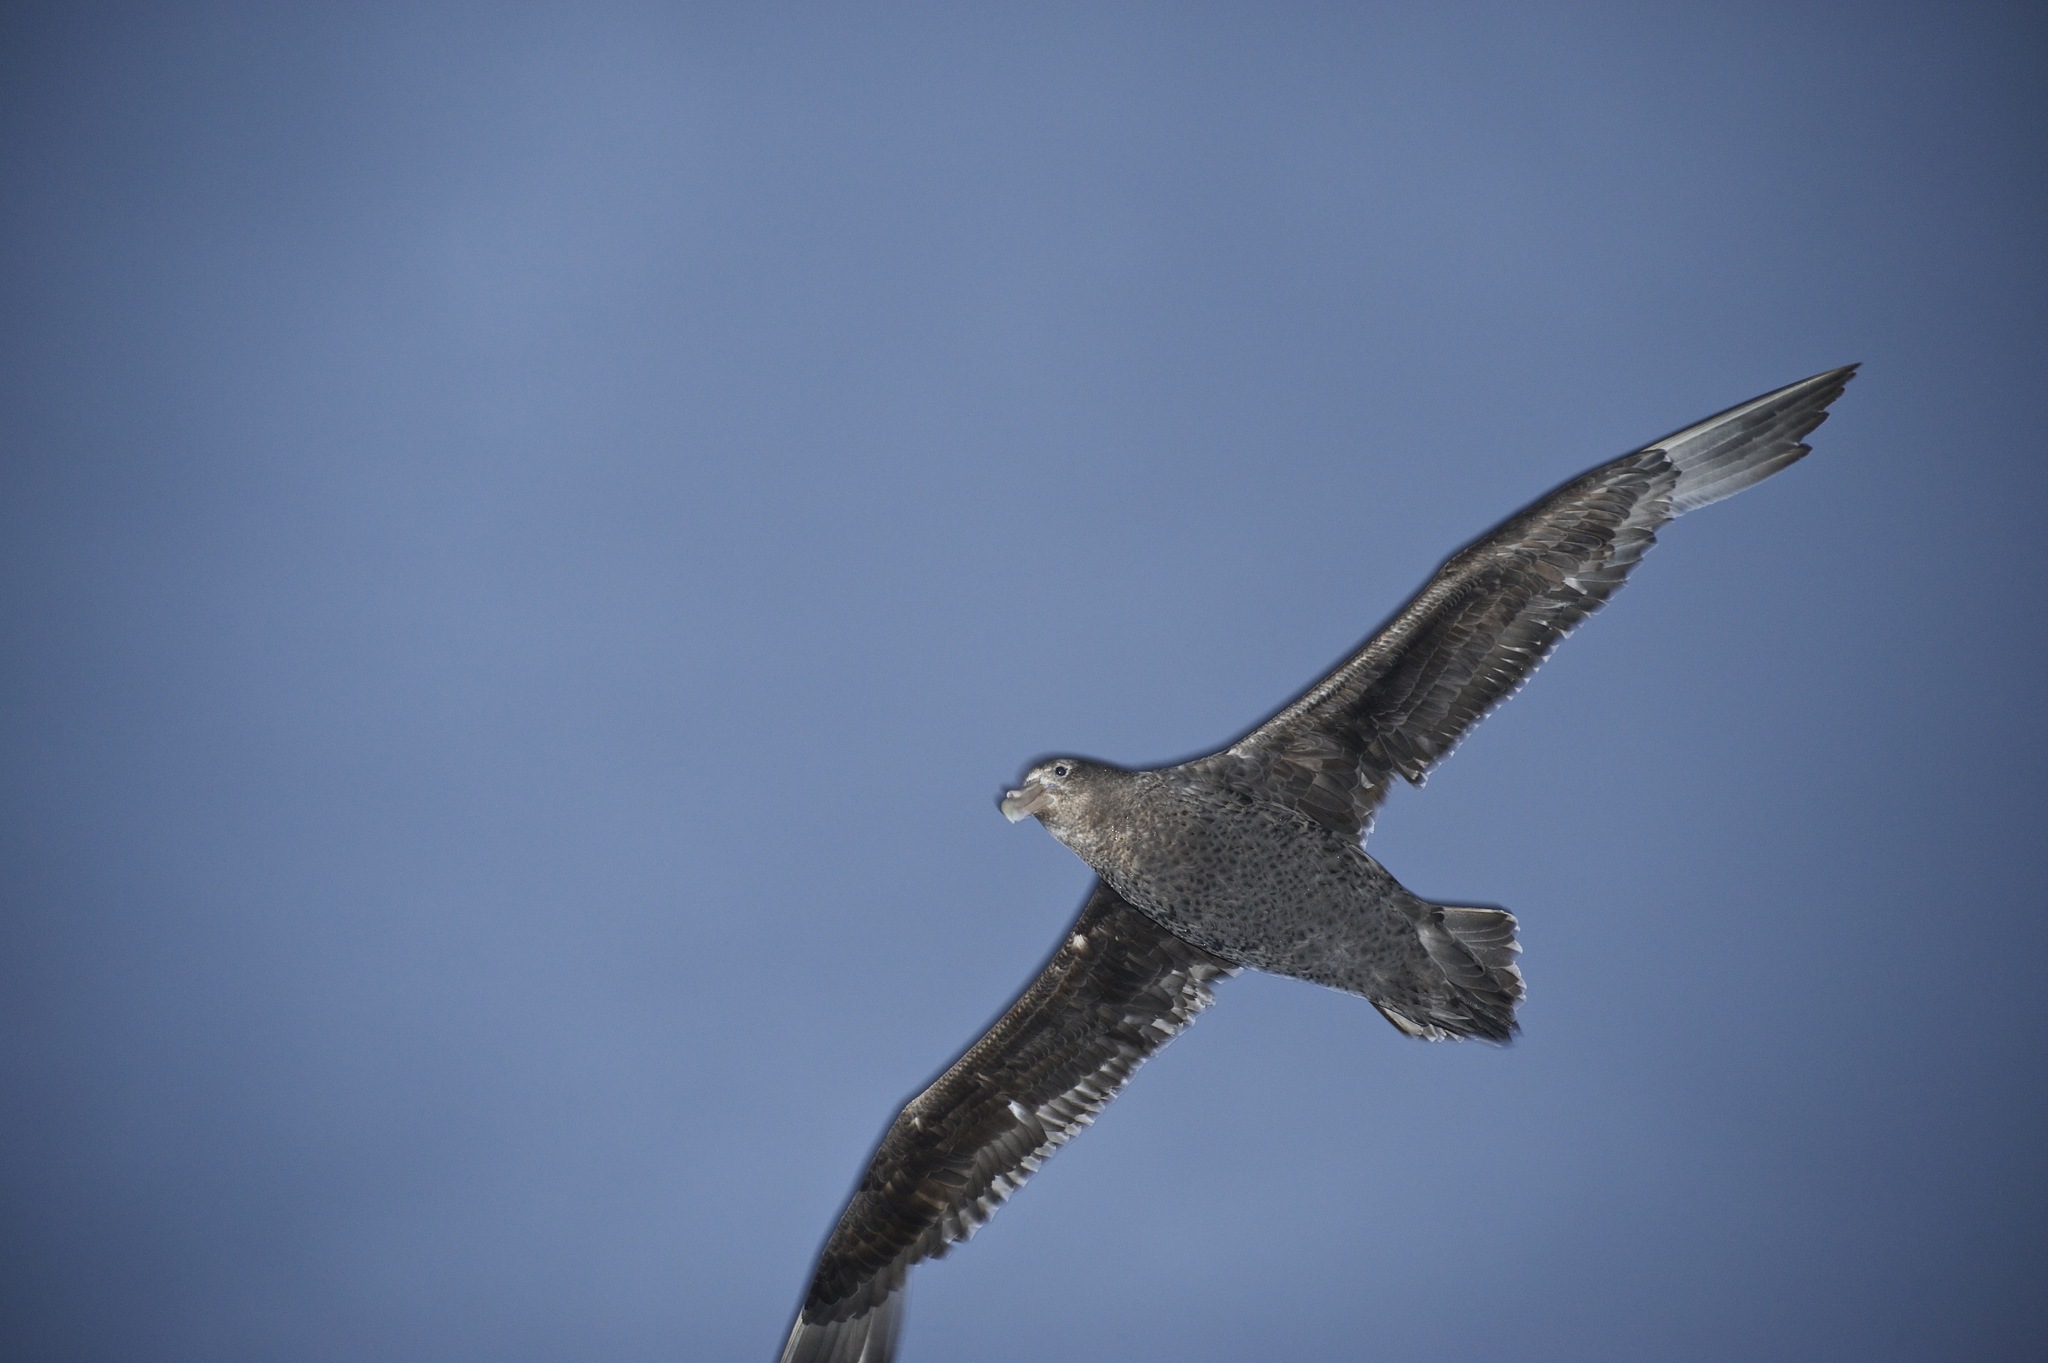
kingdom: Animalia
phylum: Chordata
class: Aves
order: Procellariiformes
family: Procellariidae
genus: Macronectes
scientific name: Macronectes giganteus
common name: Southern giant petrel
